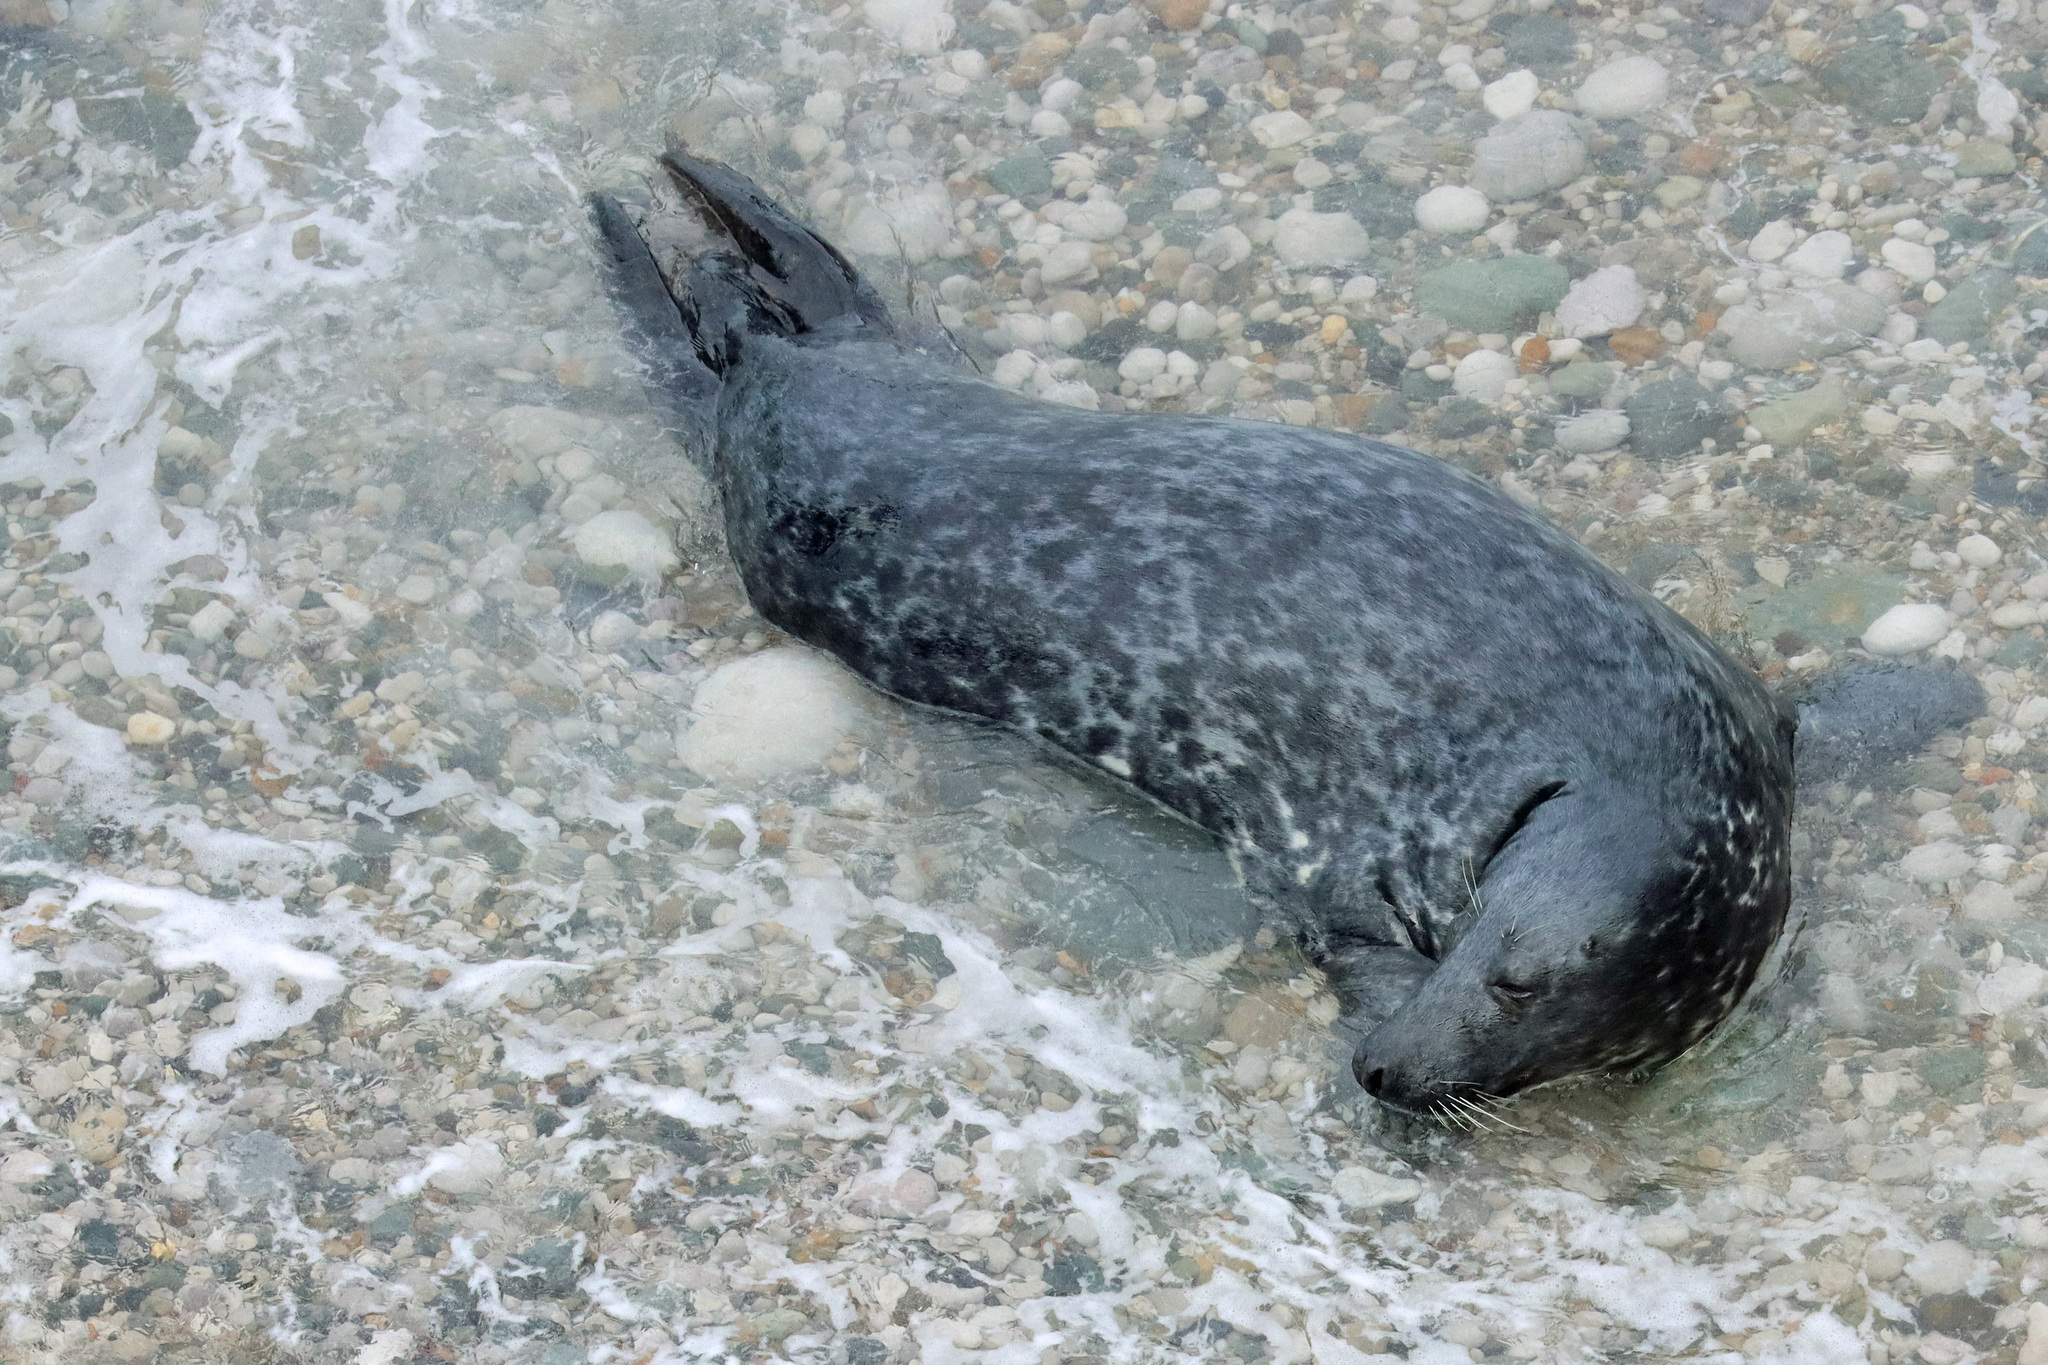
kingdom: Animalia
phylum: Chordata
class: Mammalia
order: Carnivora
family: Phocidae
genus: Halichoerus
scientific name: Halichoerus grypus
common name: Grey seal
